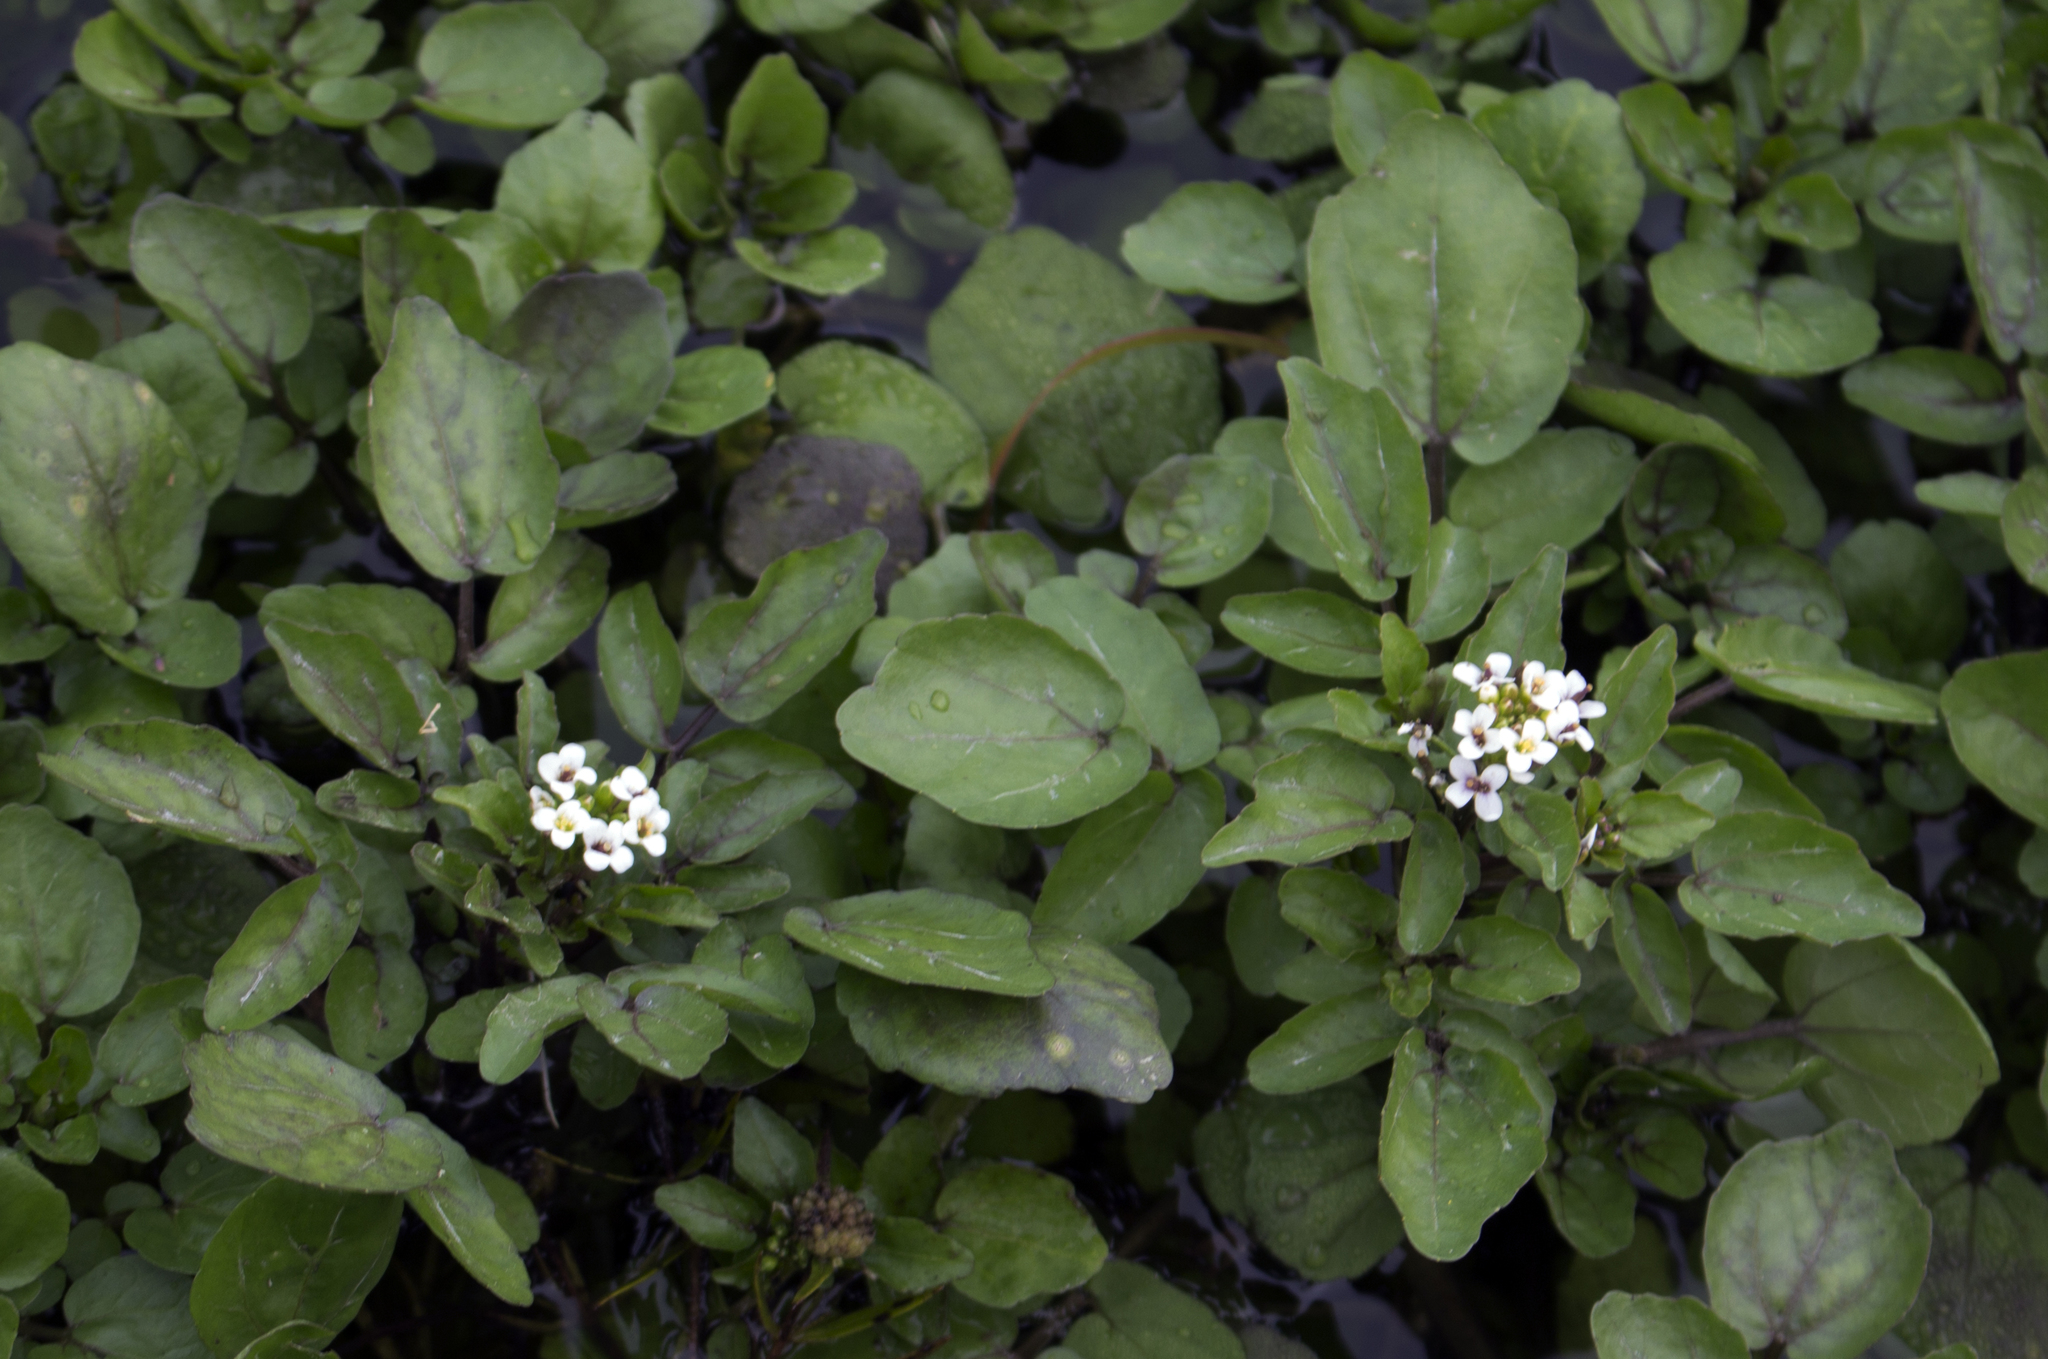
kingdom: Plantae
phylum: Tracheophyta
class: Magnoliopsida
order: Brassicales
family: Brassicaceae
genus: Nasturtium
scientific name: Nasturtium officinale
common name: Watercress
